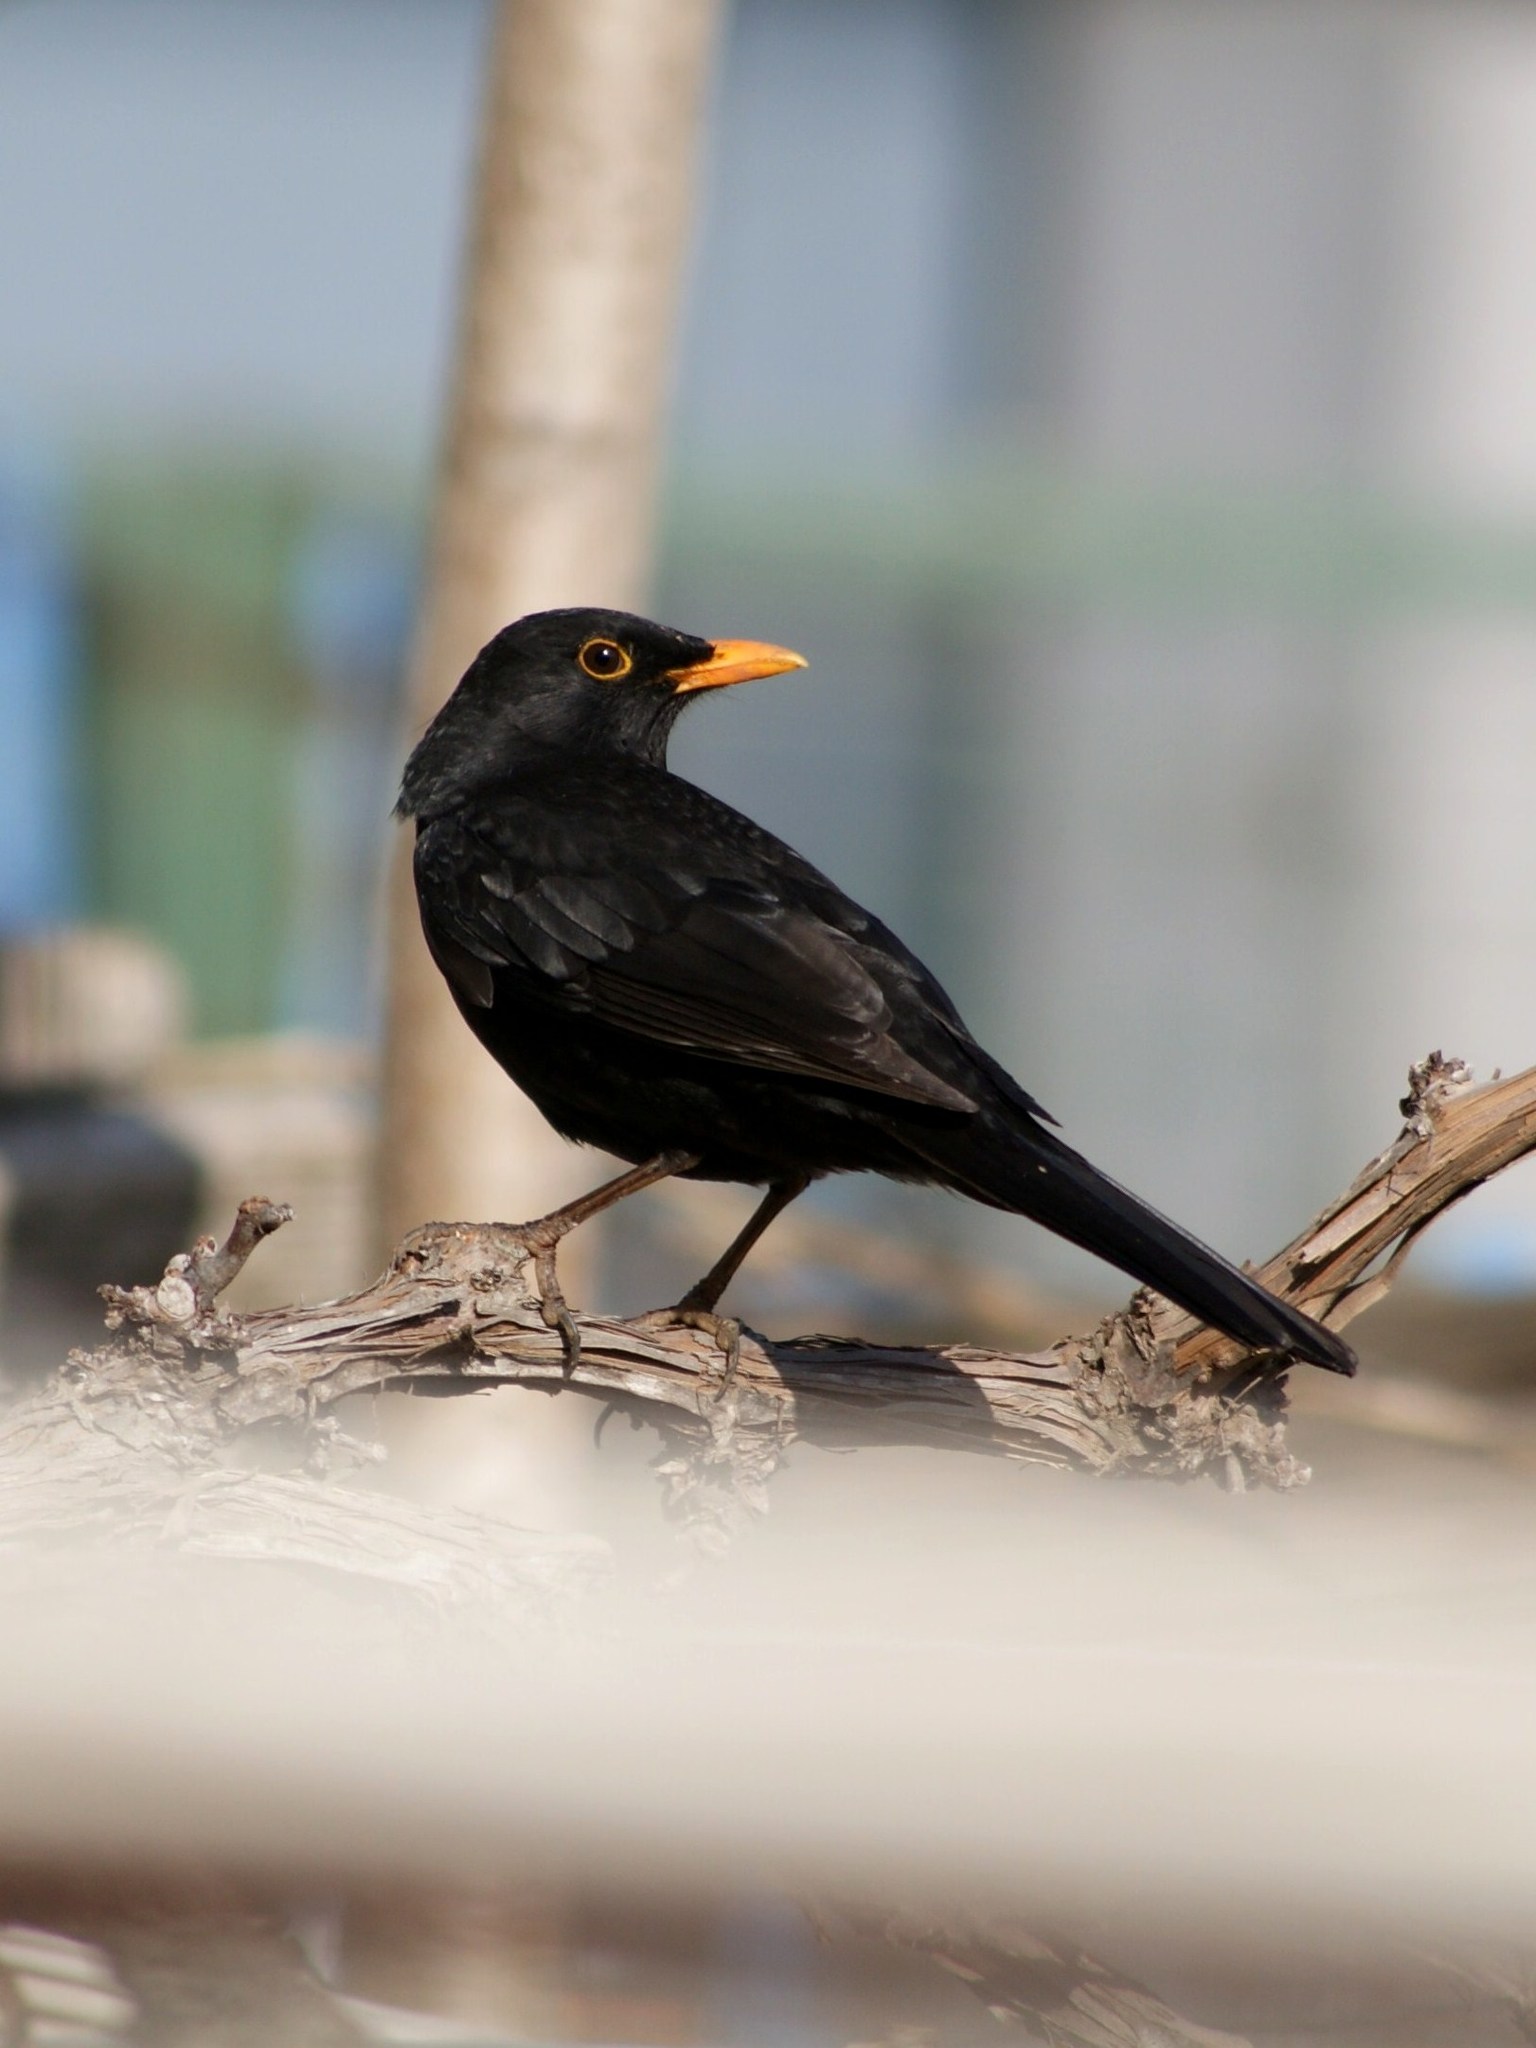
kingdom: Animalia
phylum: Chordata
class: Aves
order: Passeriformes
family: Turdidae
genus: Turdus
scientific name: Turdus merula
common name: Common blackbird
